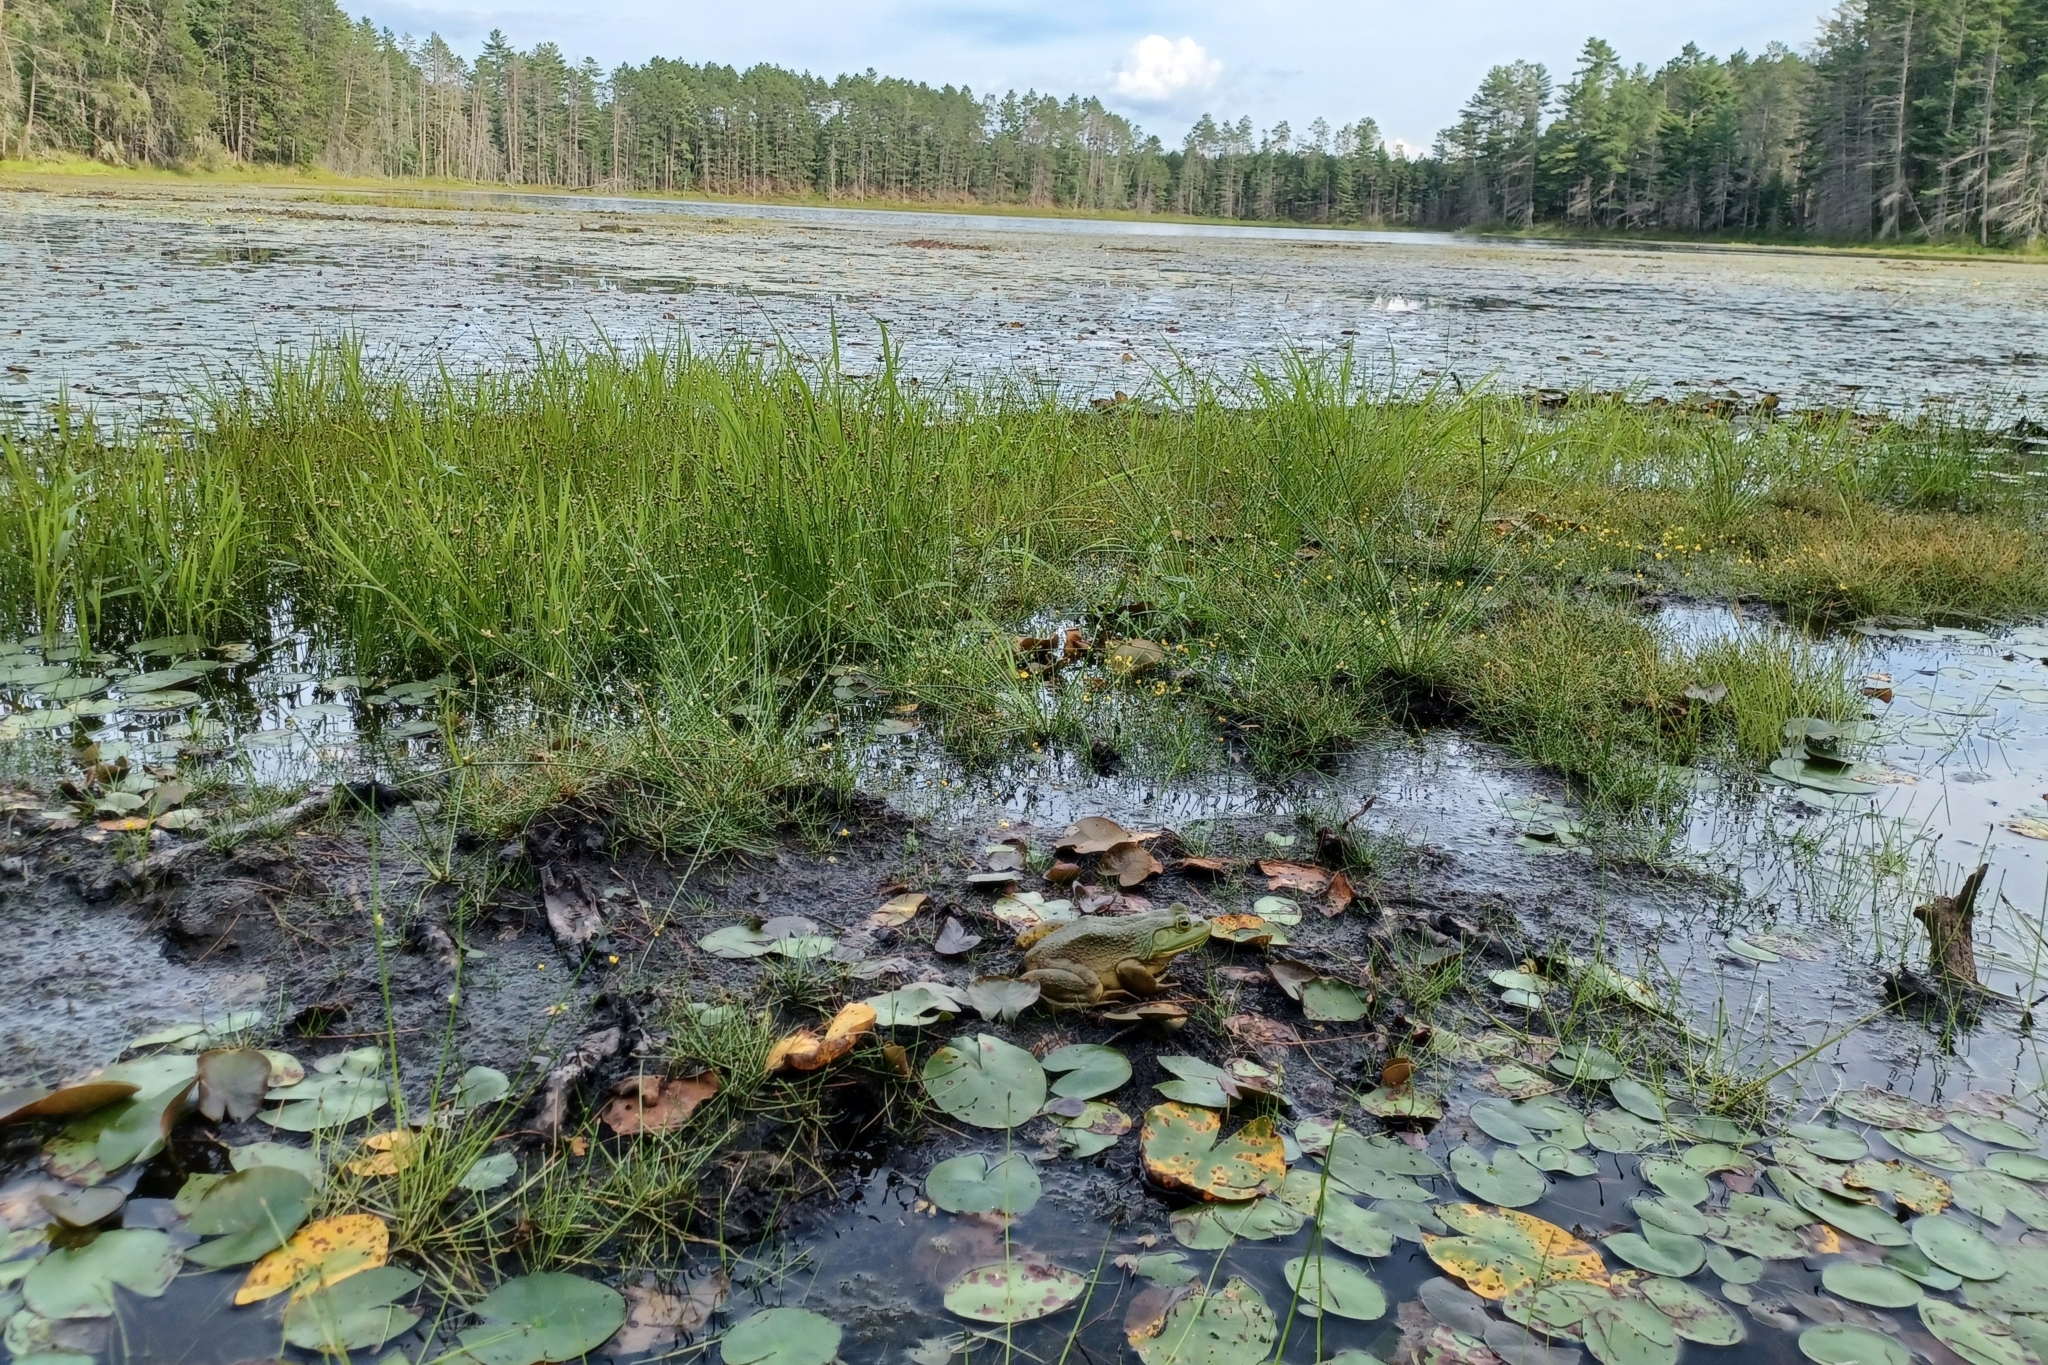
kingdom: Plantae
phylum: Tracheophyta
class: Liliopsida
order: Poales
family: Cyperaceae
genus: Schoenoplectiella
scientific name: Schoenoplectiella purshiana
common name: Weak-stalked bulrush
